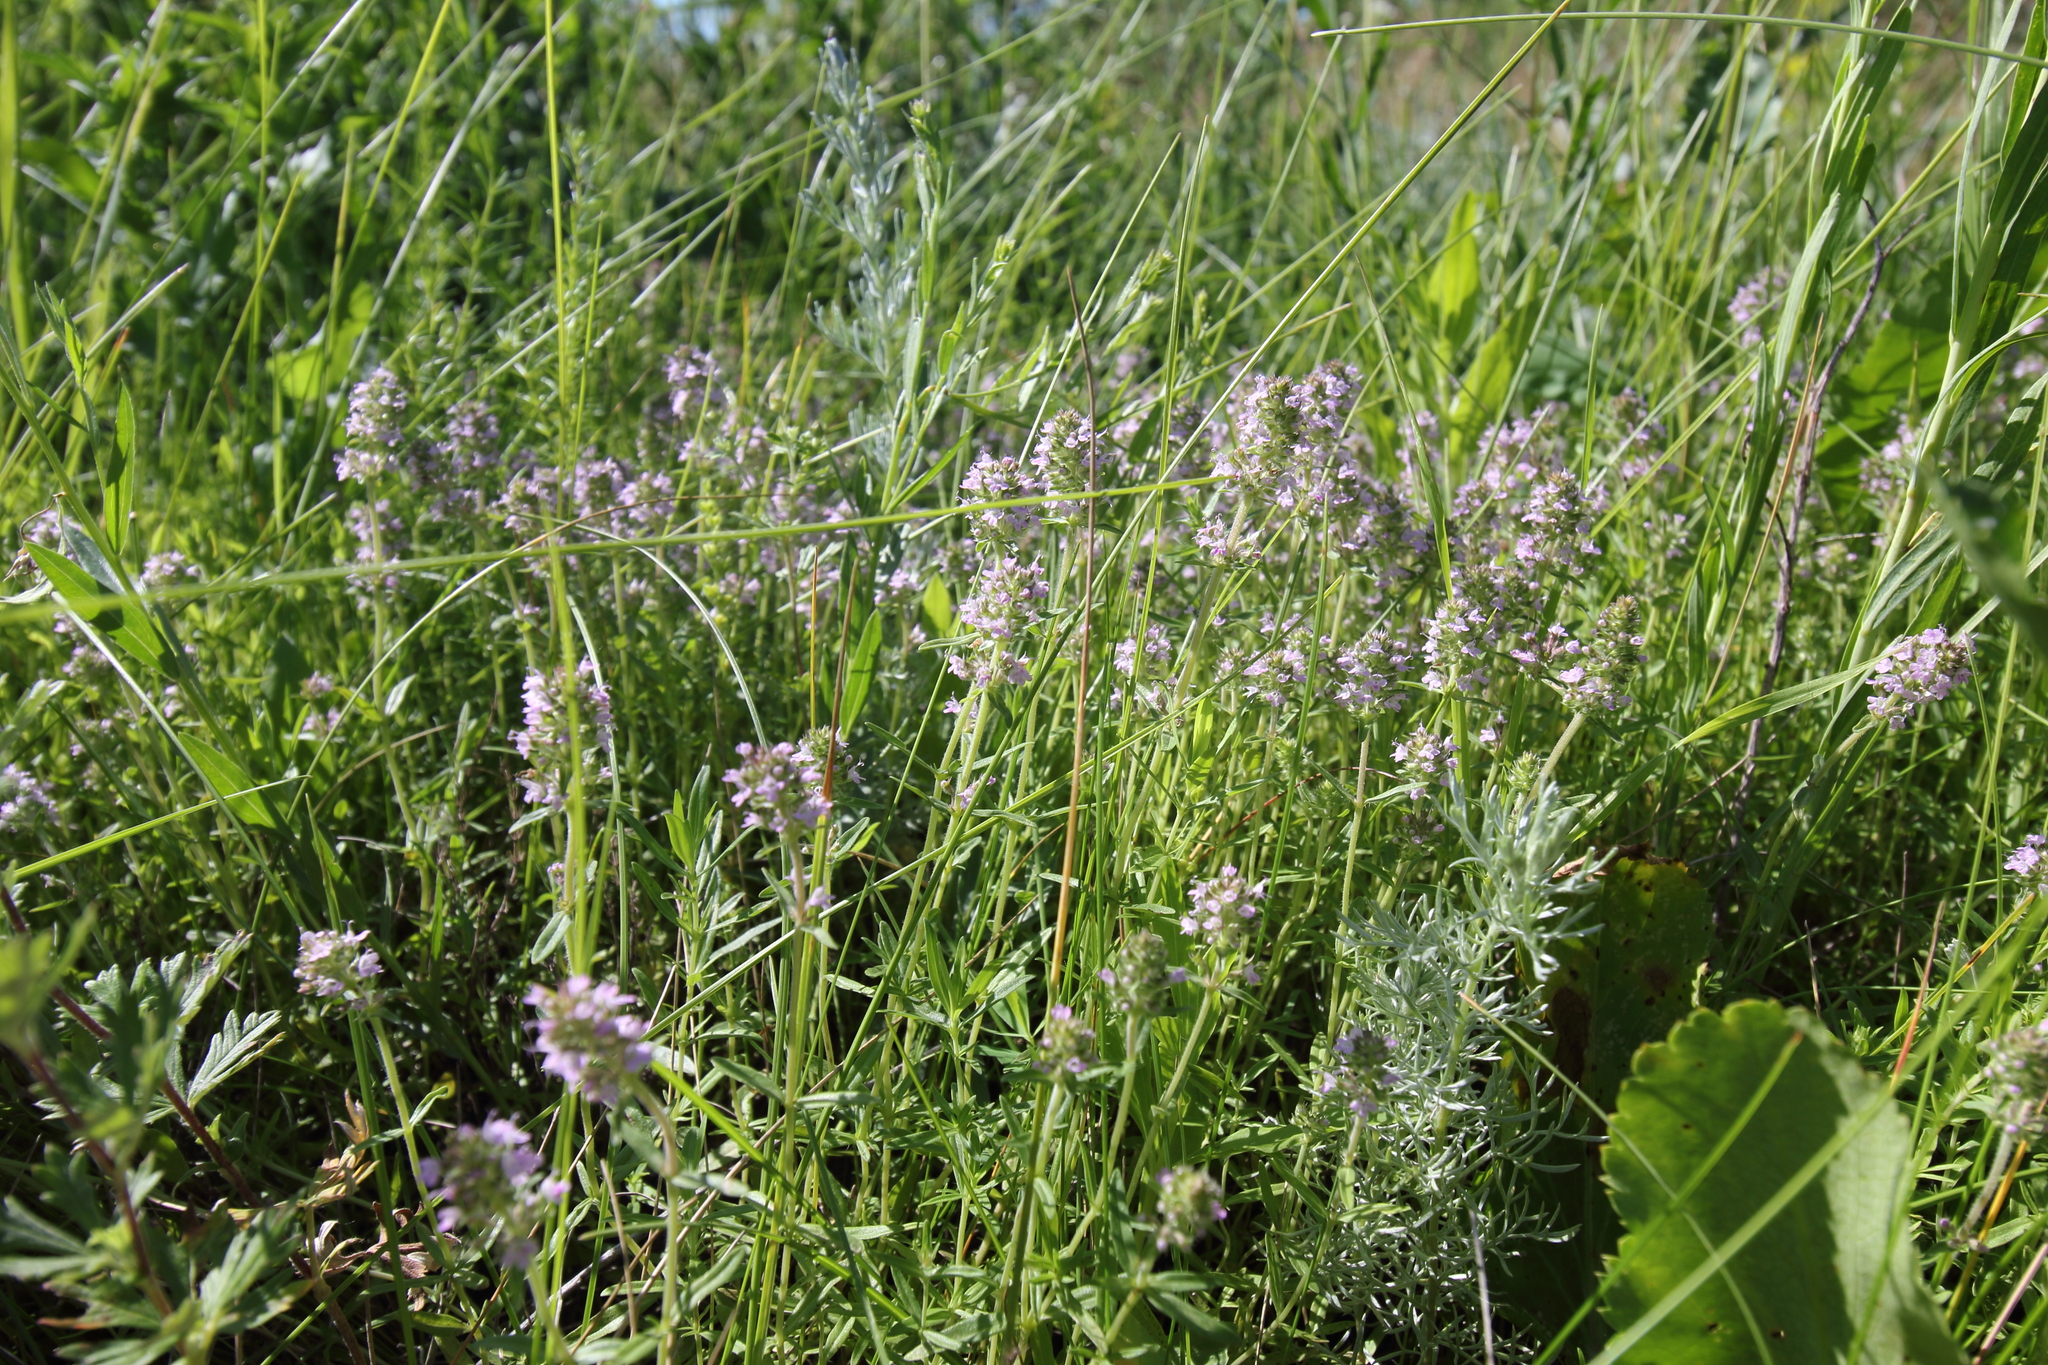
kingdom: Plantae
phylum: Tracheophyta
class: Magnoliopsida
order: Lamiales
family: Lamiaceae
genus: Thymus
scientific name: Thymus pannonicus
